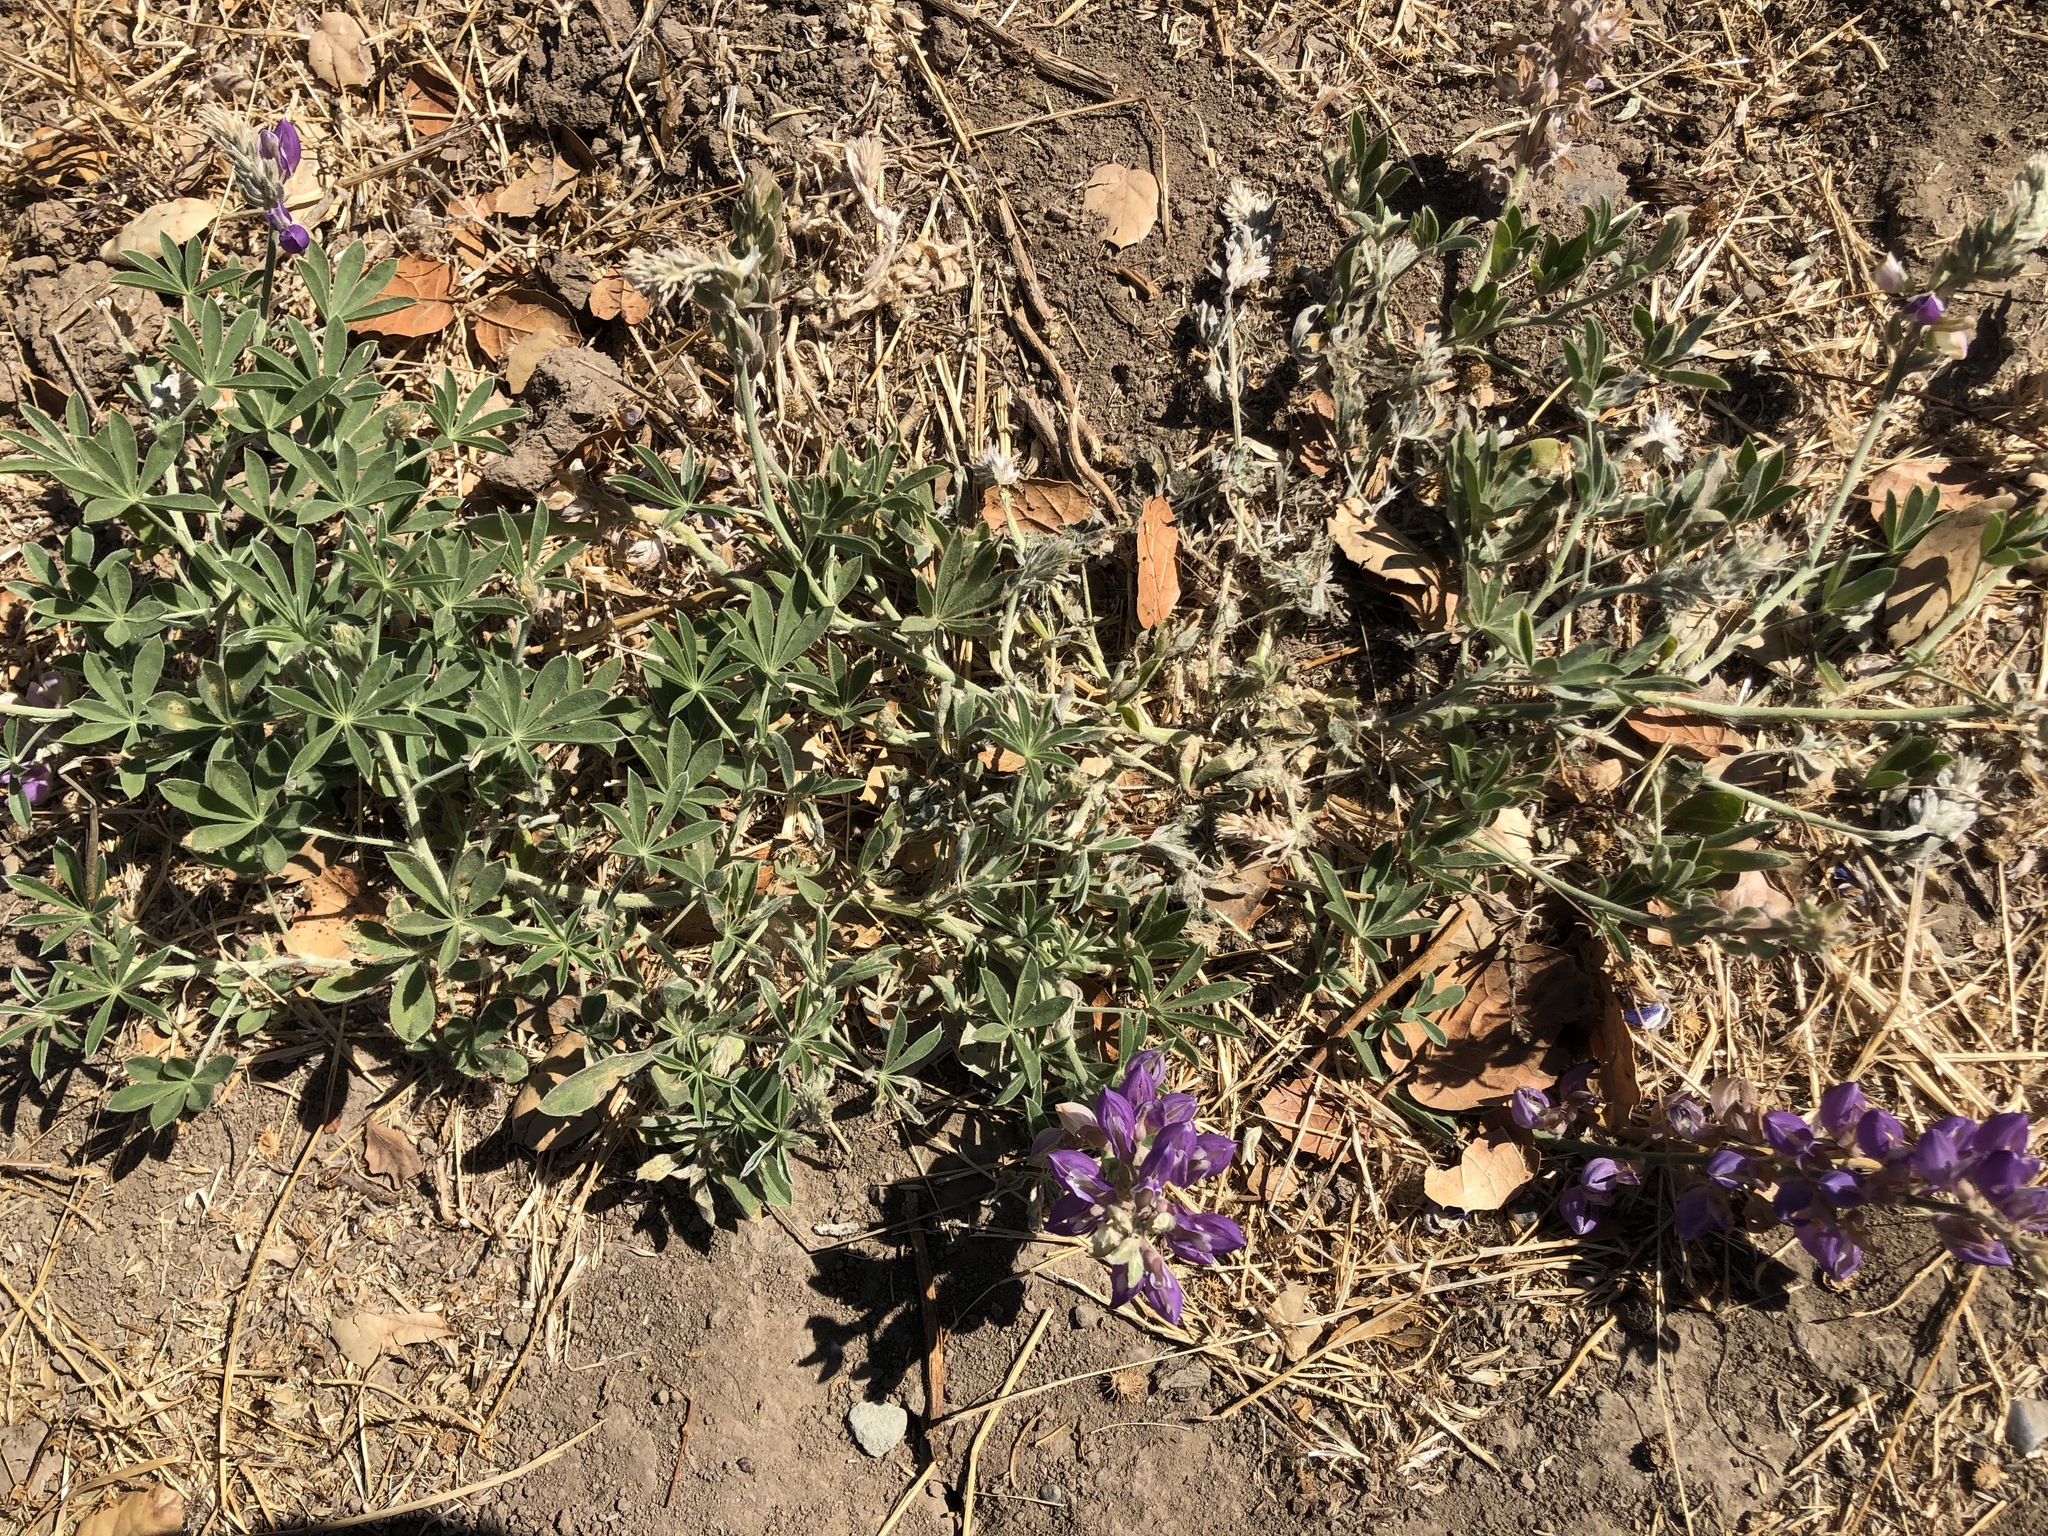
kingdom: Plantae
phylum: Tracheophyta
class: Magnoliopsida
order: Fabales
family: Fabaceae
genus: Lupinus
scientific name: Lupinus formosus
